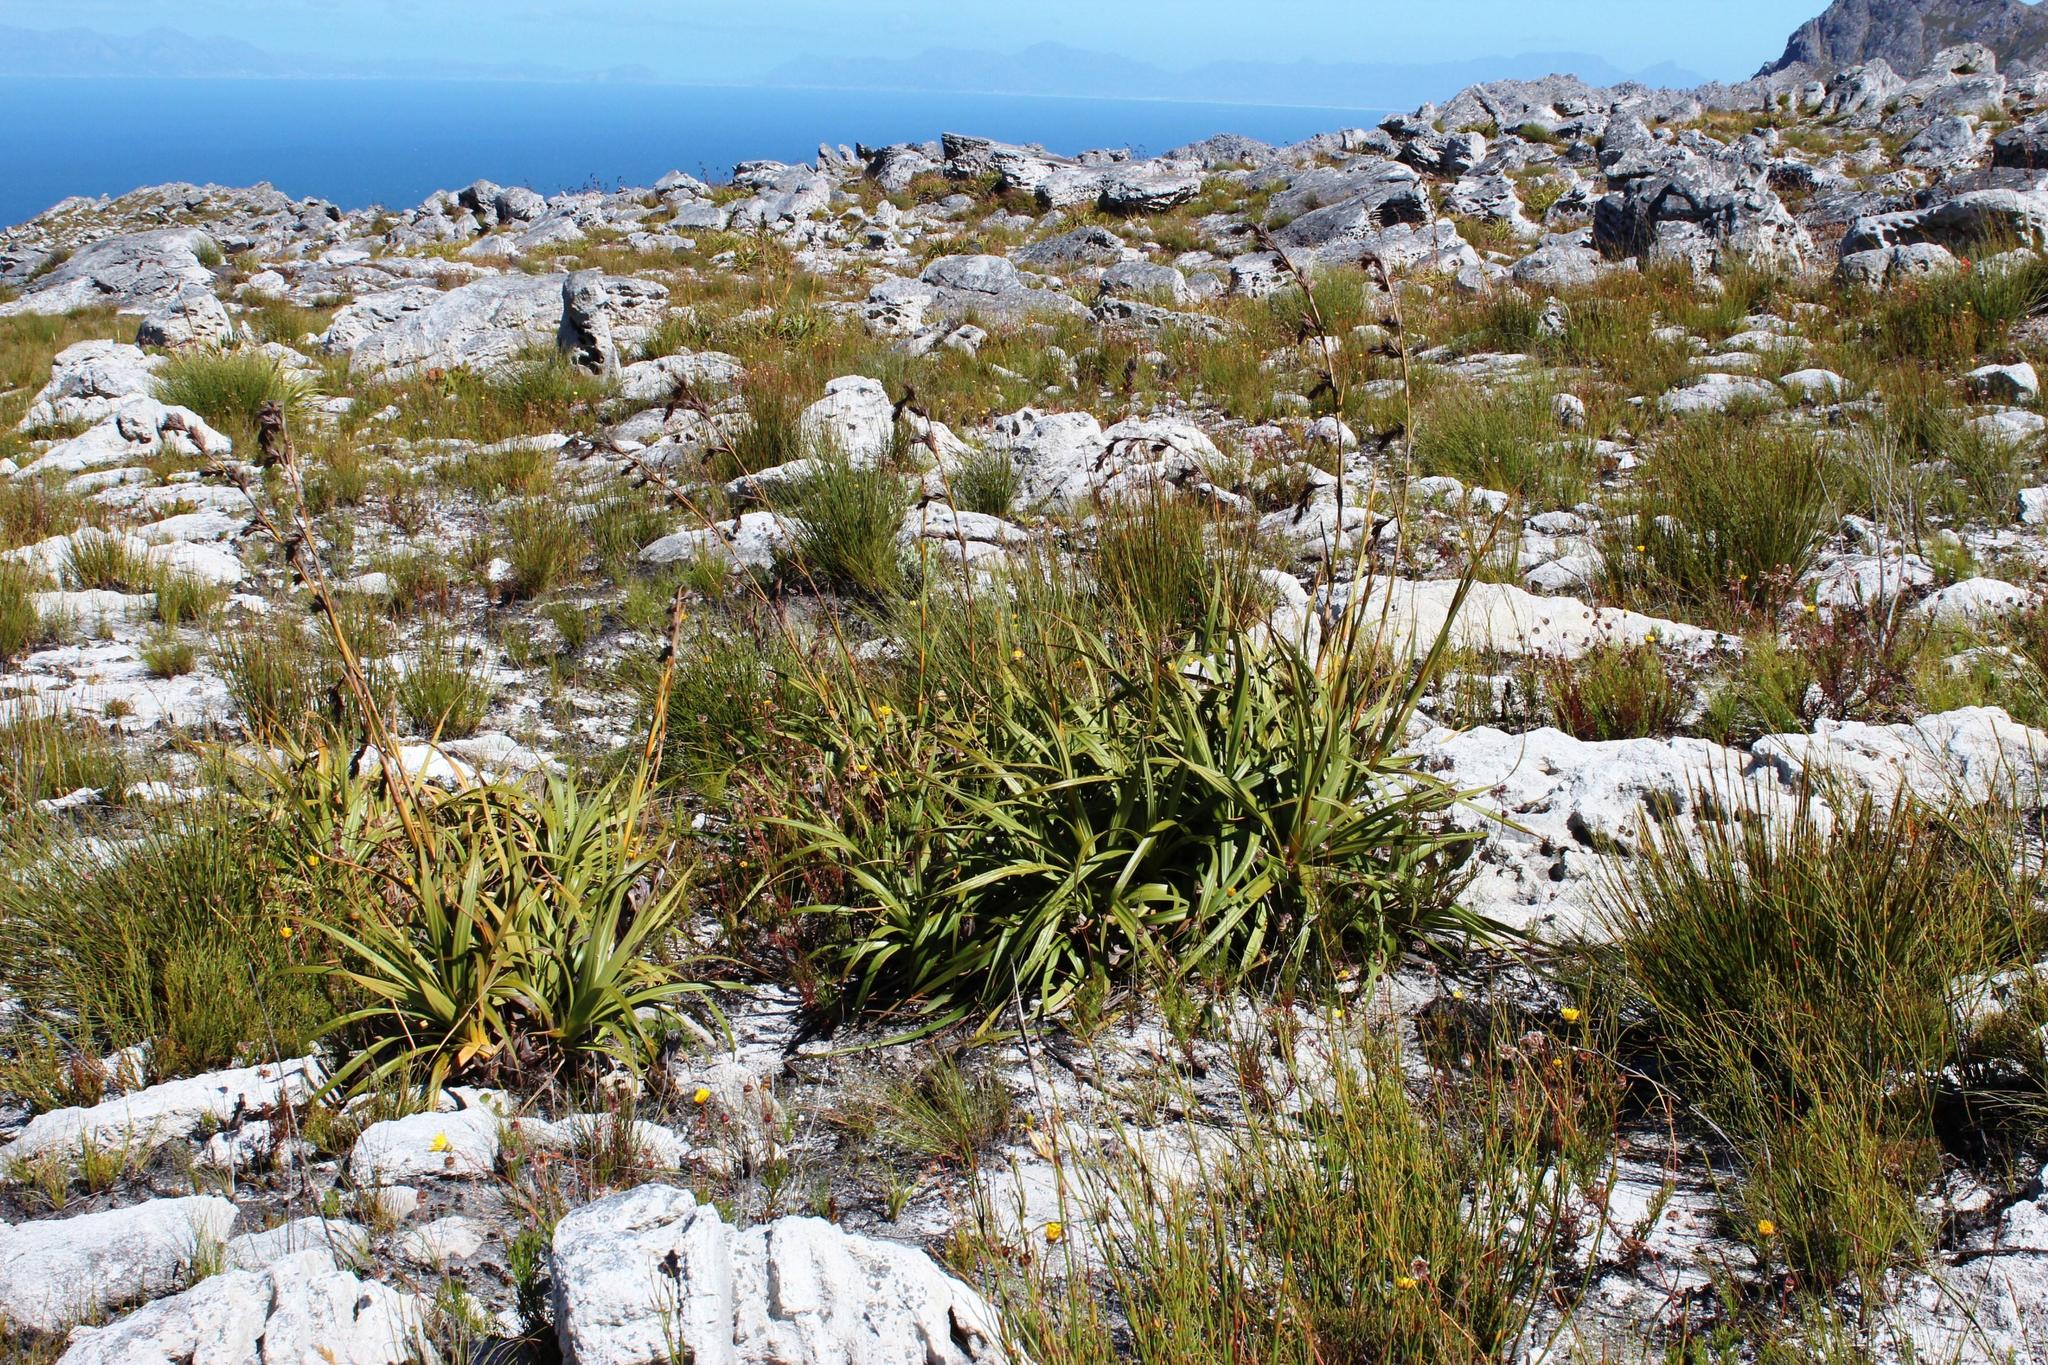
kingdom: Plantae
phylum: Tracheophyta
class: Liliopsida
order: Poales
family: Cyperaceae
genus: Tetraria
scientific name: Tetraria thermalis
